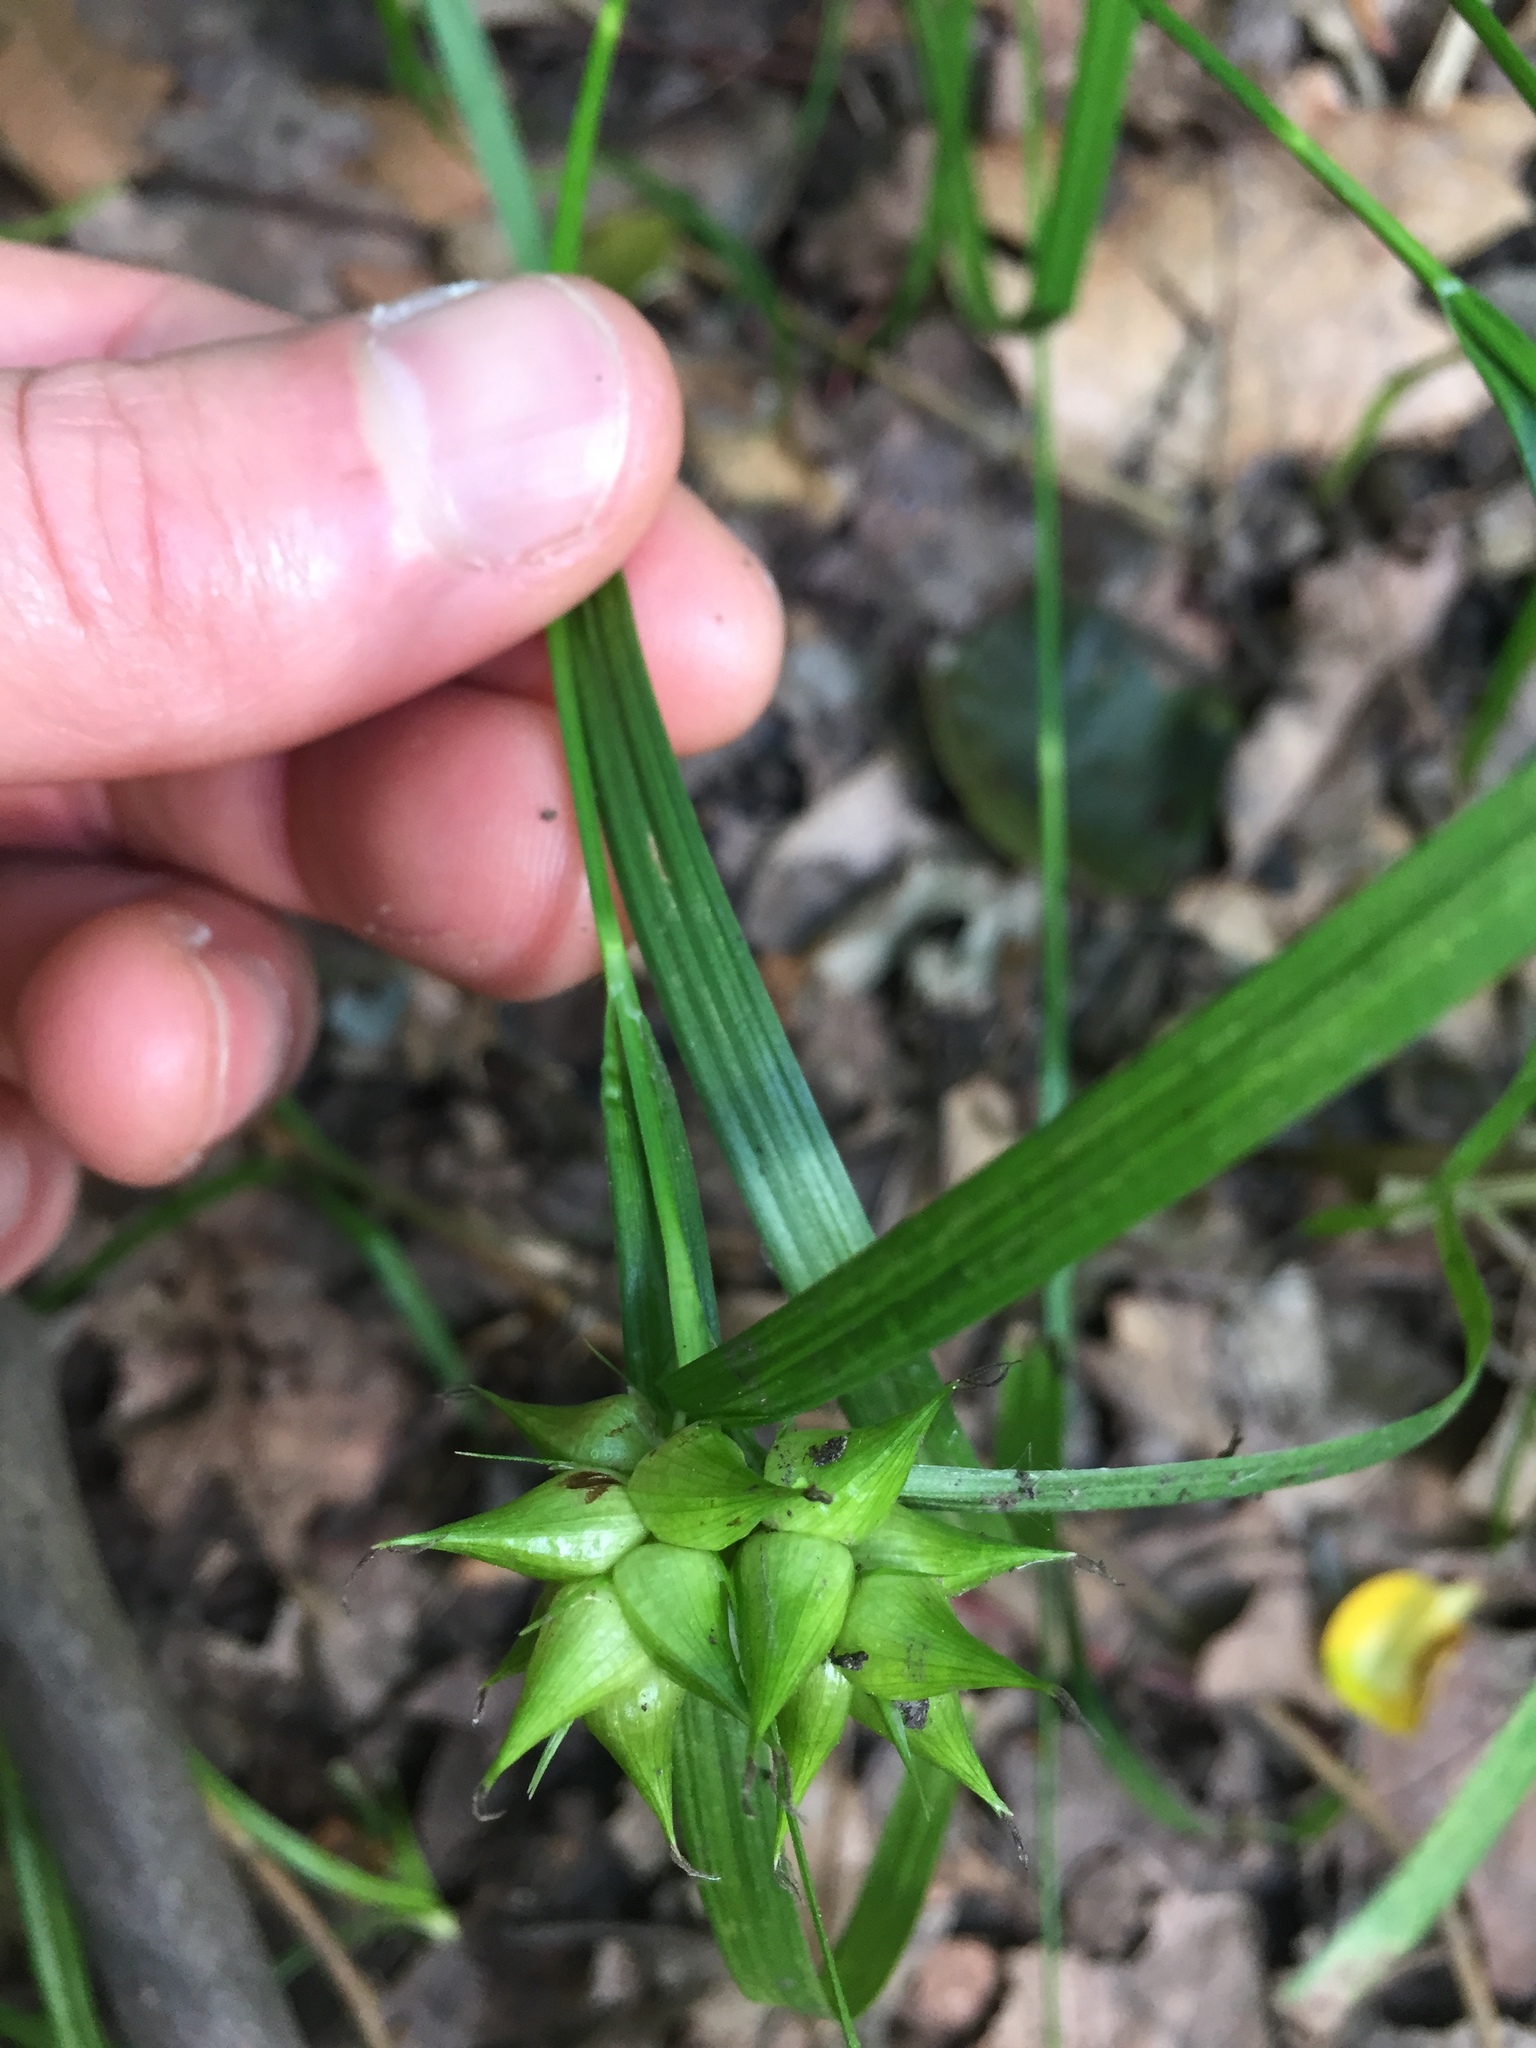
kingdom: Plantae
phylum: Tracheophyta
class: Liliopsida
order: Poales
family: Cyperaceae
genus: Carex
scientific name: Carex intumescens
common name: Greater bladder sedge
